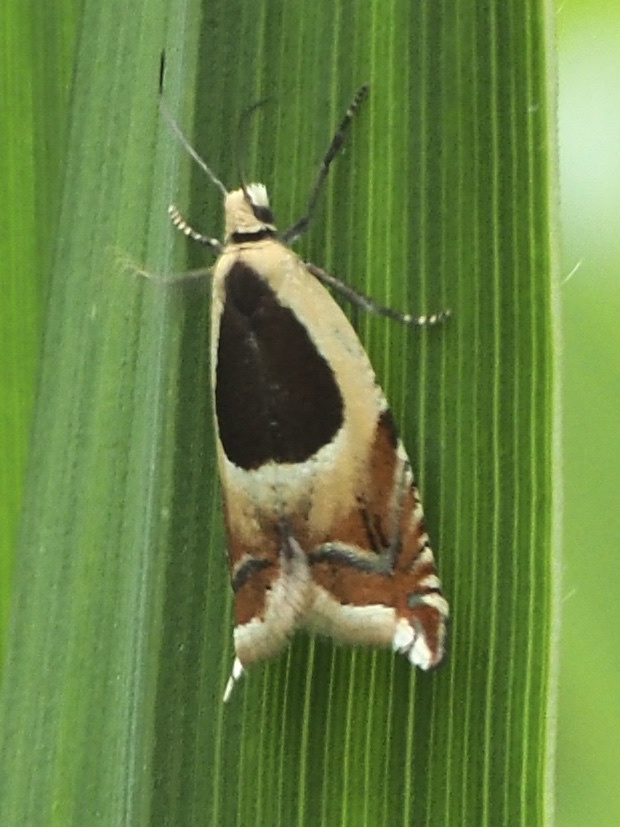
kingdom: Animalia
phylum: Arthropoda
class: Insecta
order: Lepidoptera
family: Tortricidae
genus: Ancylis
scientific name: Ancylis badiana
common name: Common roller
